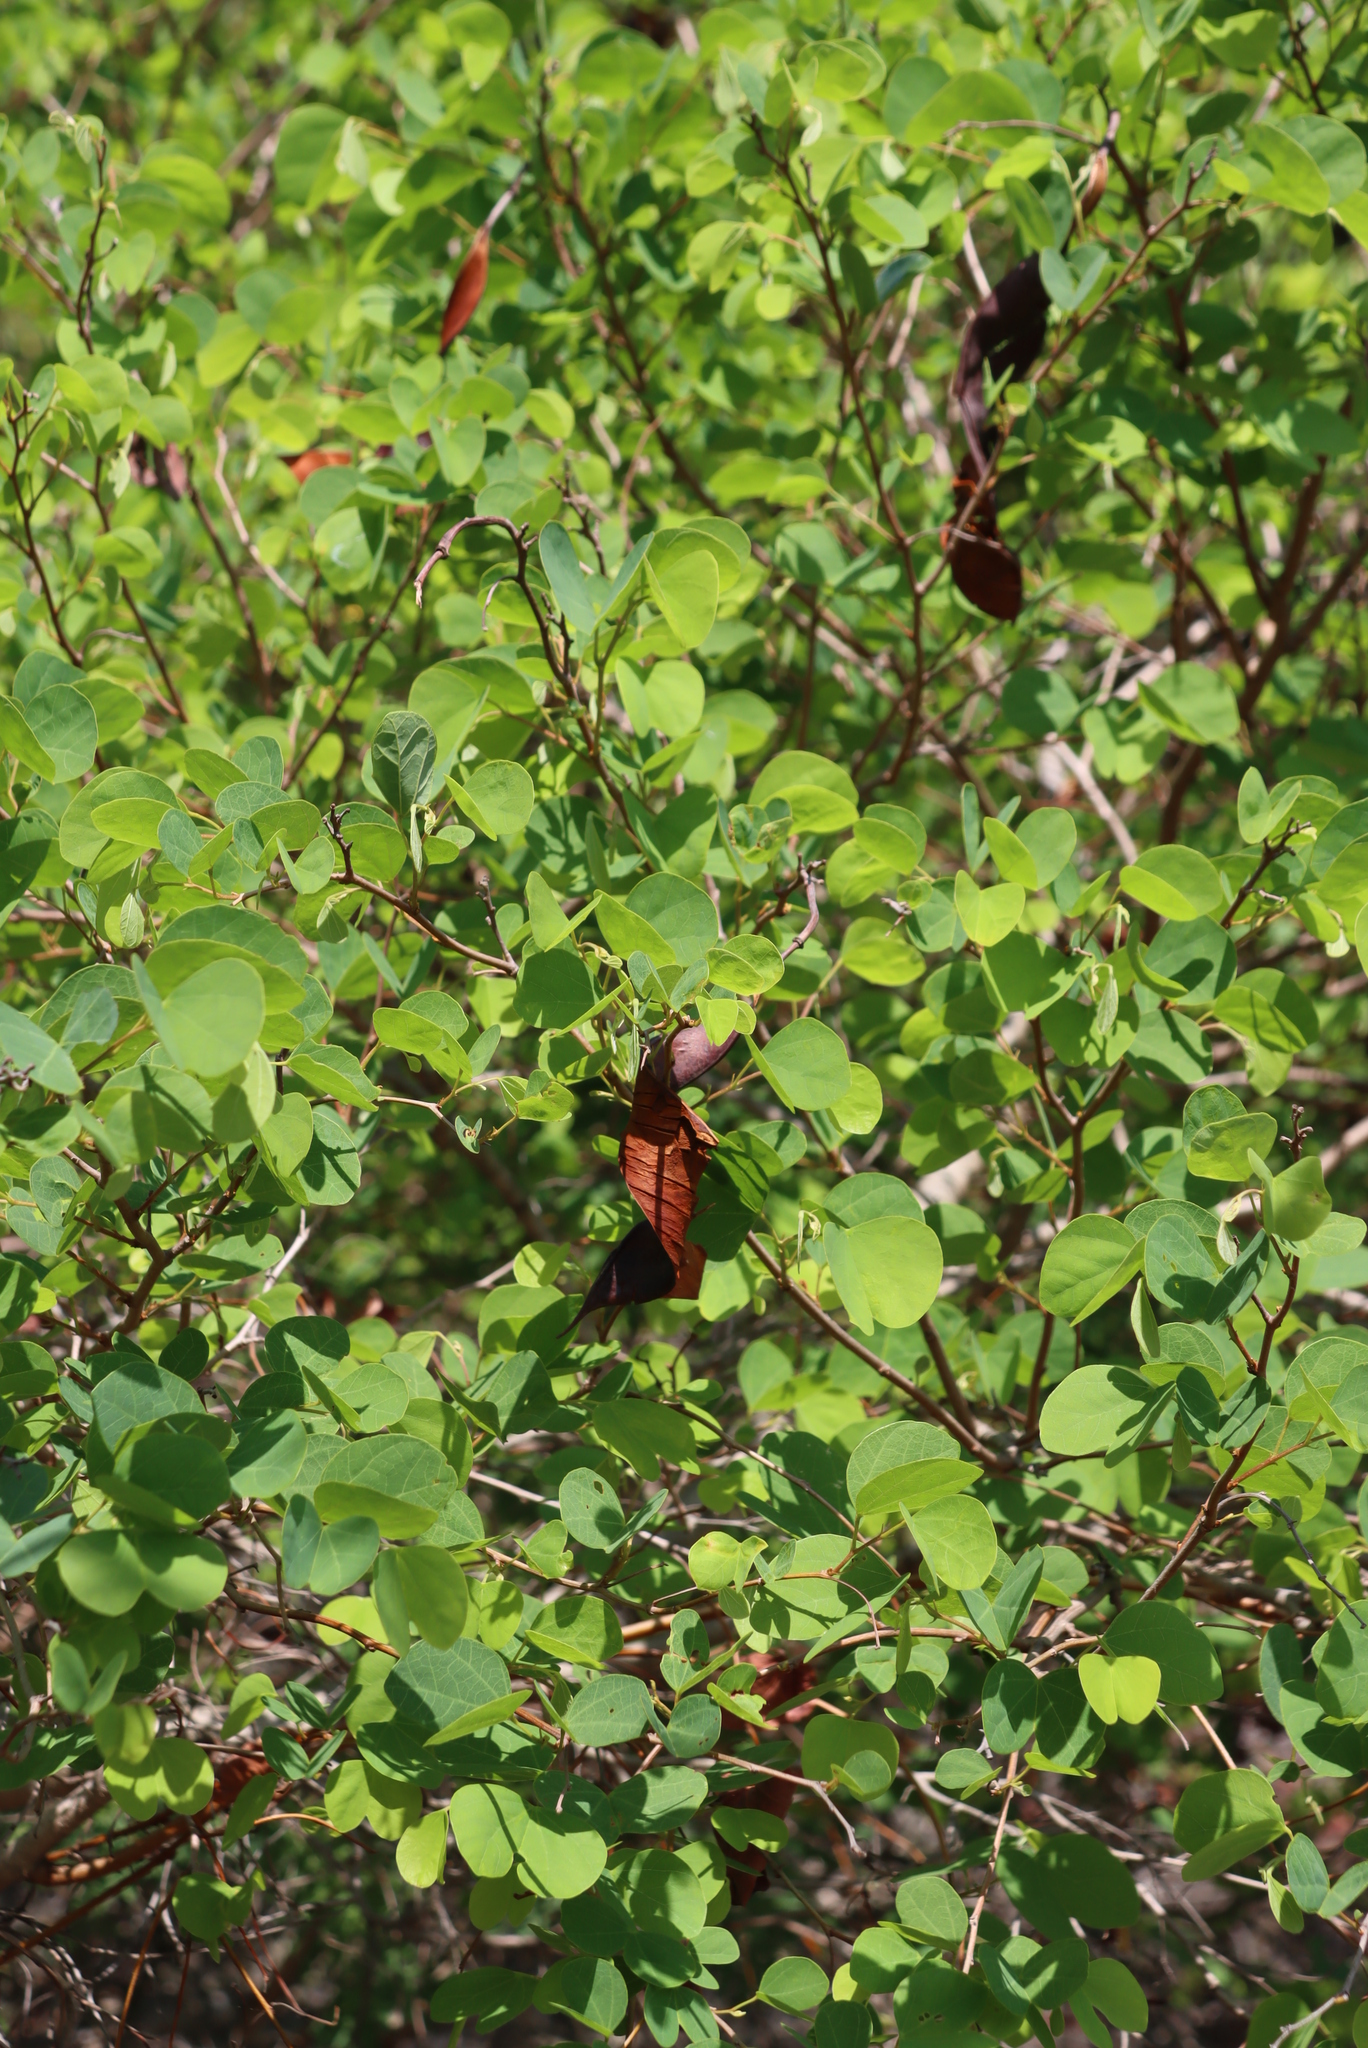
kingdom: Plantae
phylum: Tracheophyta
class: Magnoliopsida
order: Fabales
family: Fabaceae
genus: Bauhinia
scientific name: Bauhinia galpinii
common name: African plume
